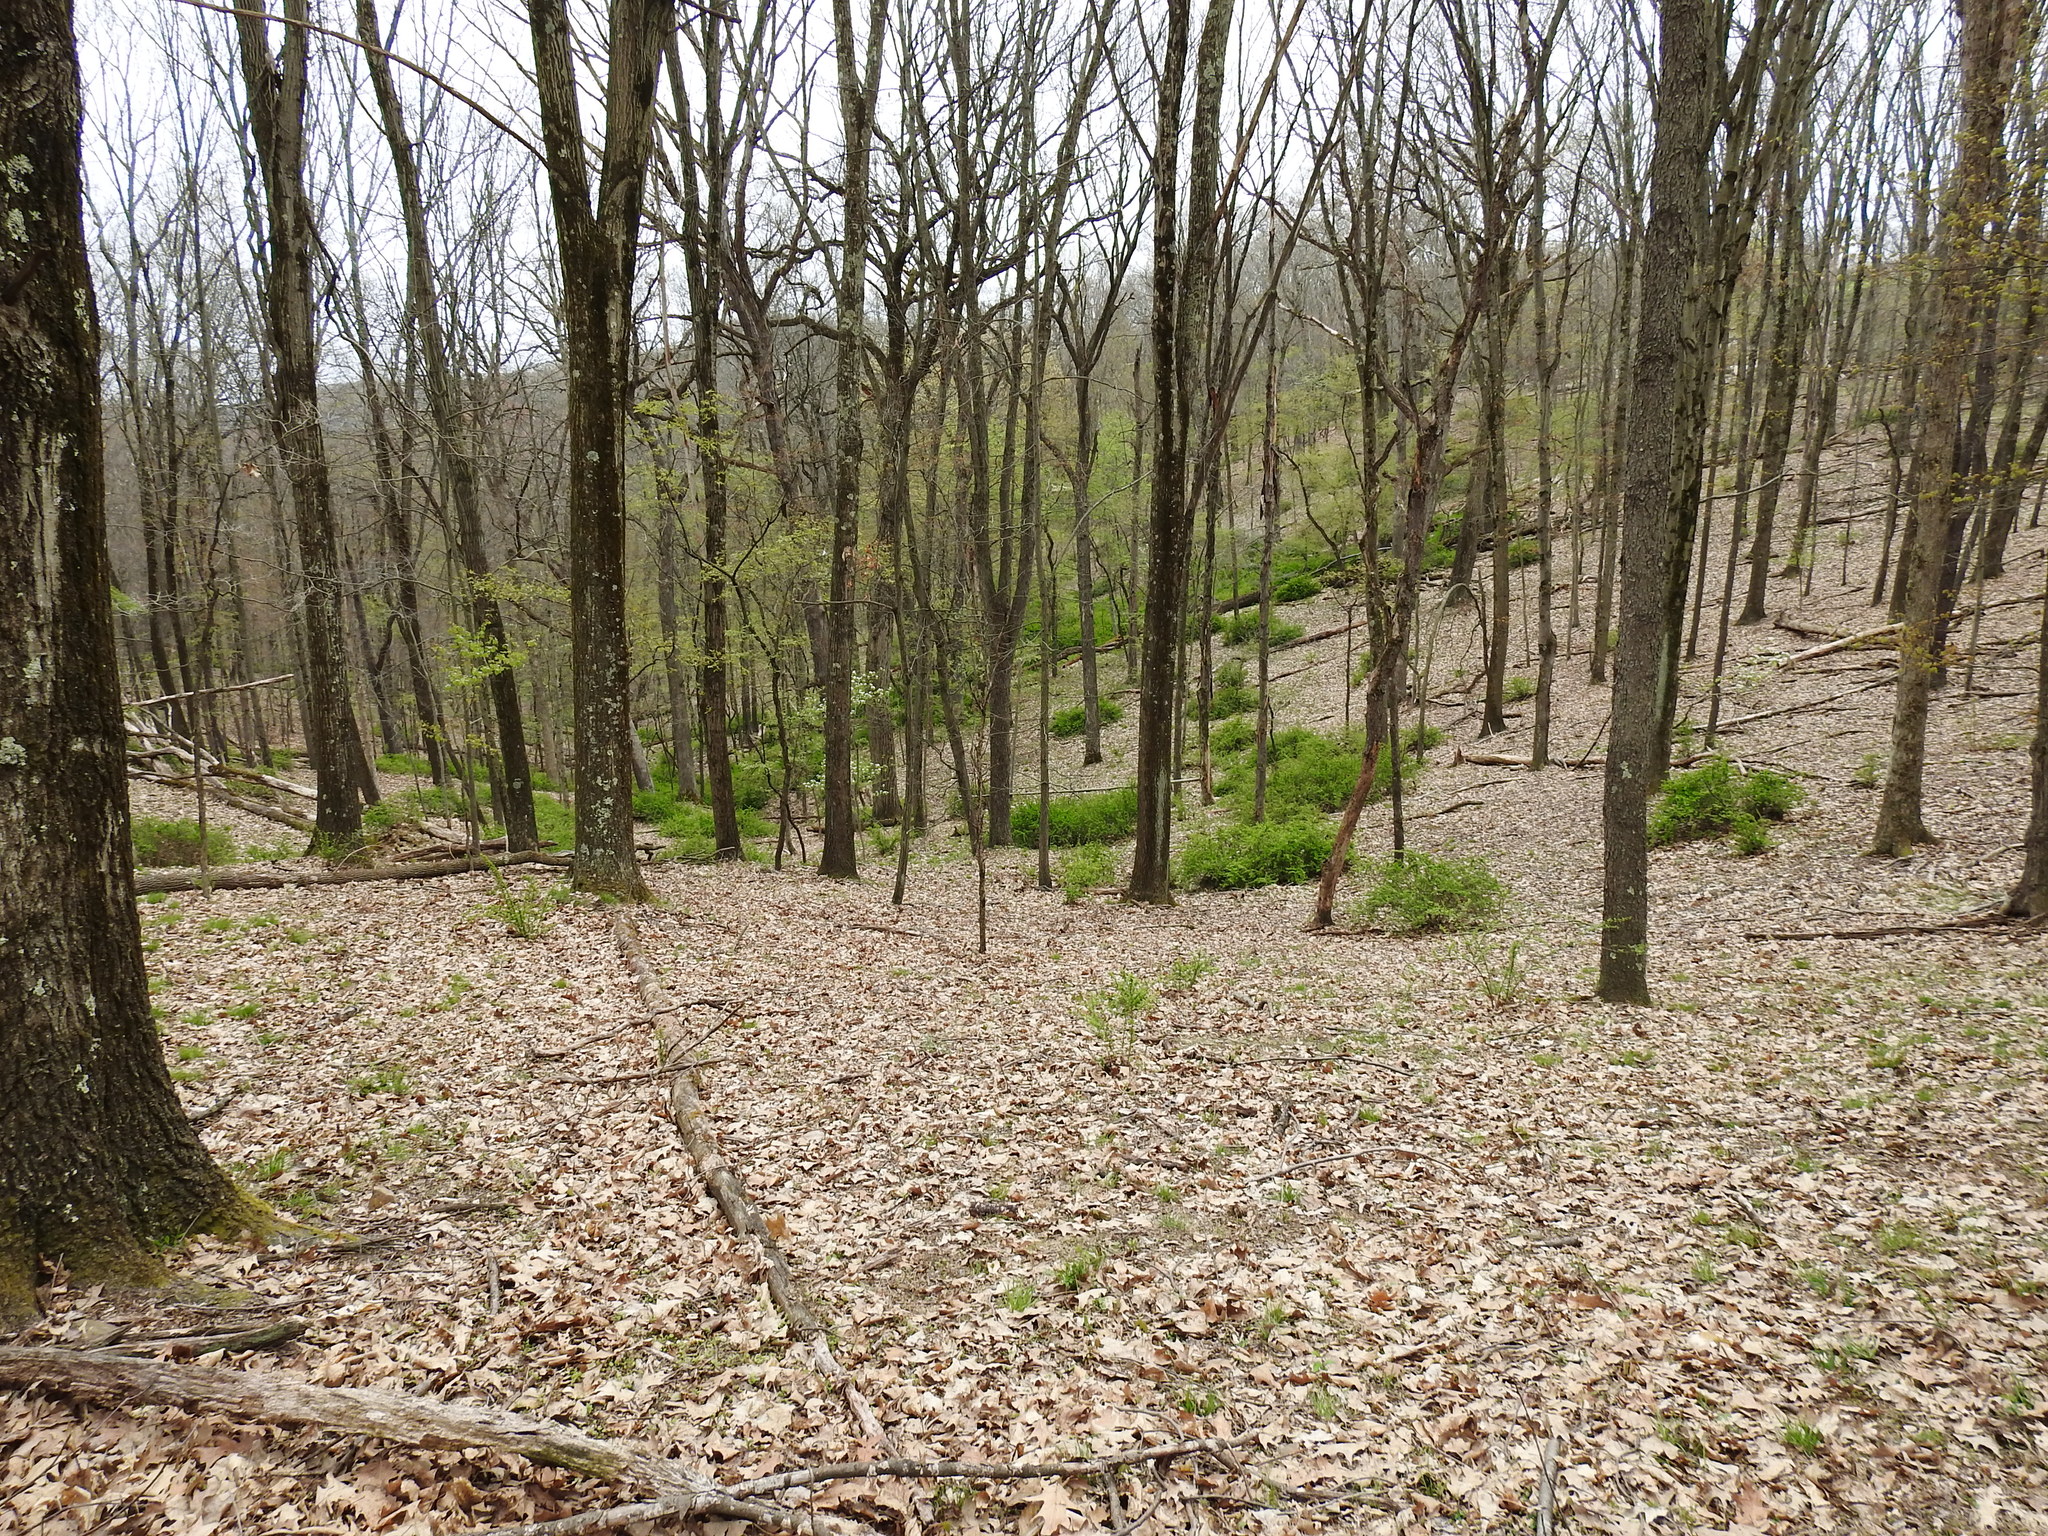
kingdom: Plantae
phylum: Tracheophyta
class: Magnoliopsida
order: Ranunculales
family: Berberidaceae
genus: Berberis
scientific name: Berberis thunbergii
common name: Japanese barberry
